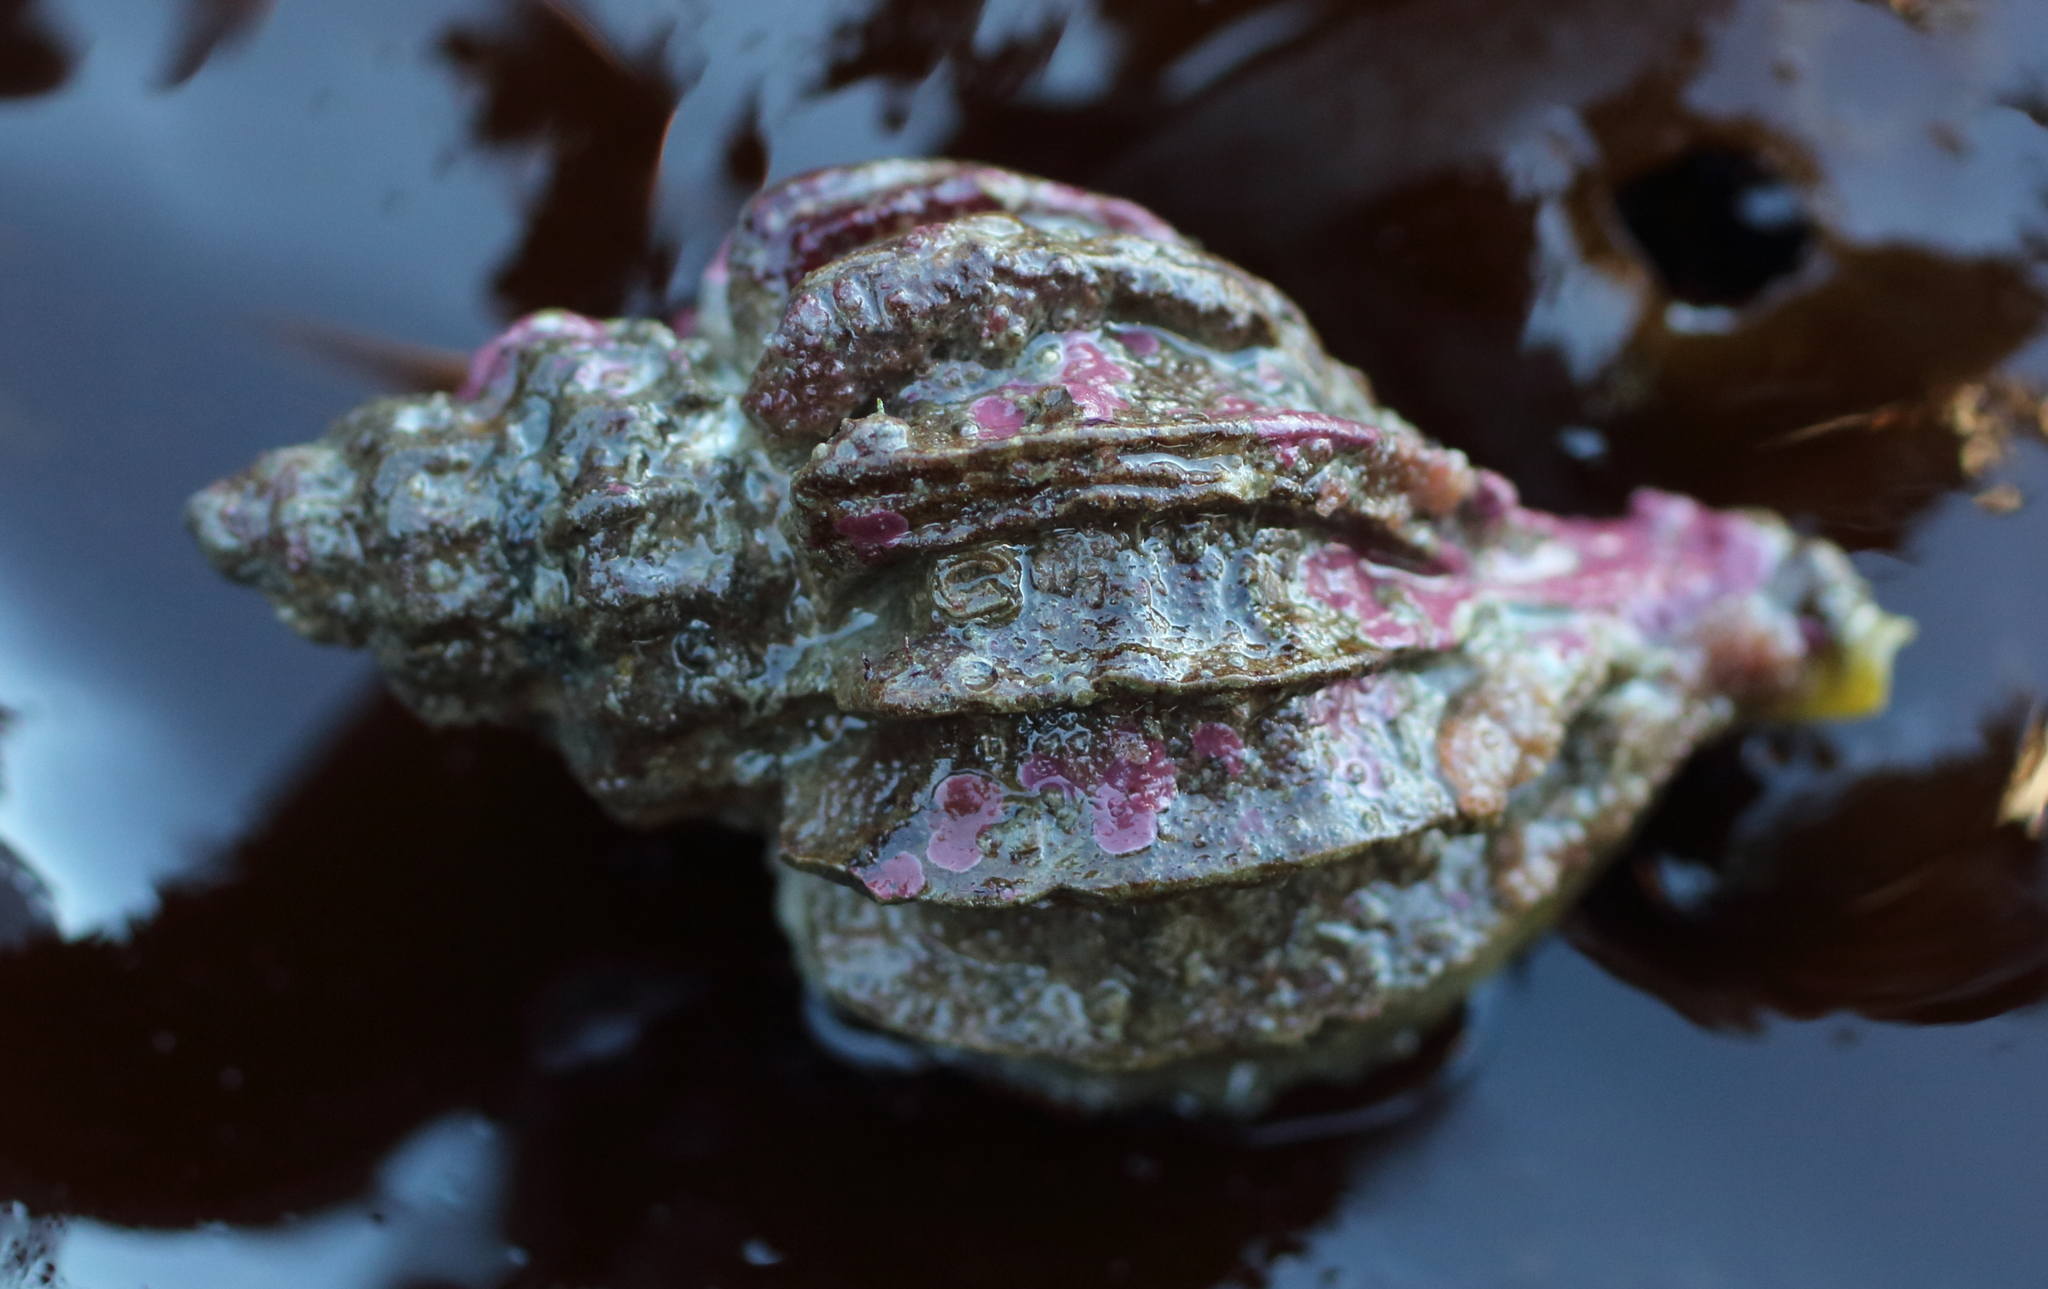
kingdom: Animalia
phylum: Mollusca
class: Gastropoda
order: Neogastropoda
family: Muricidae
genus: Scabrotrophon
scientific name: Scabrotrophon stuarti
